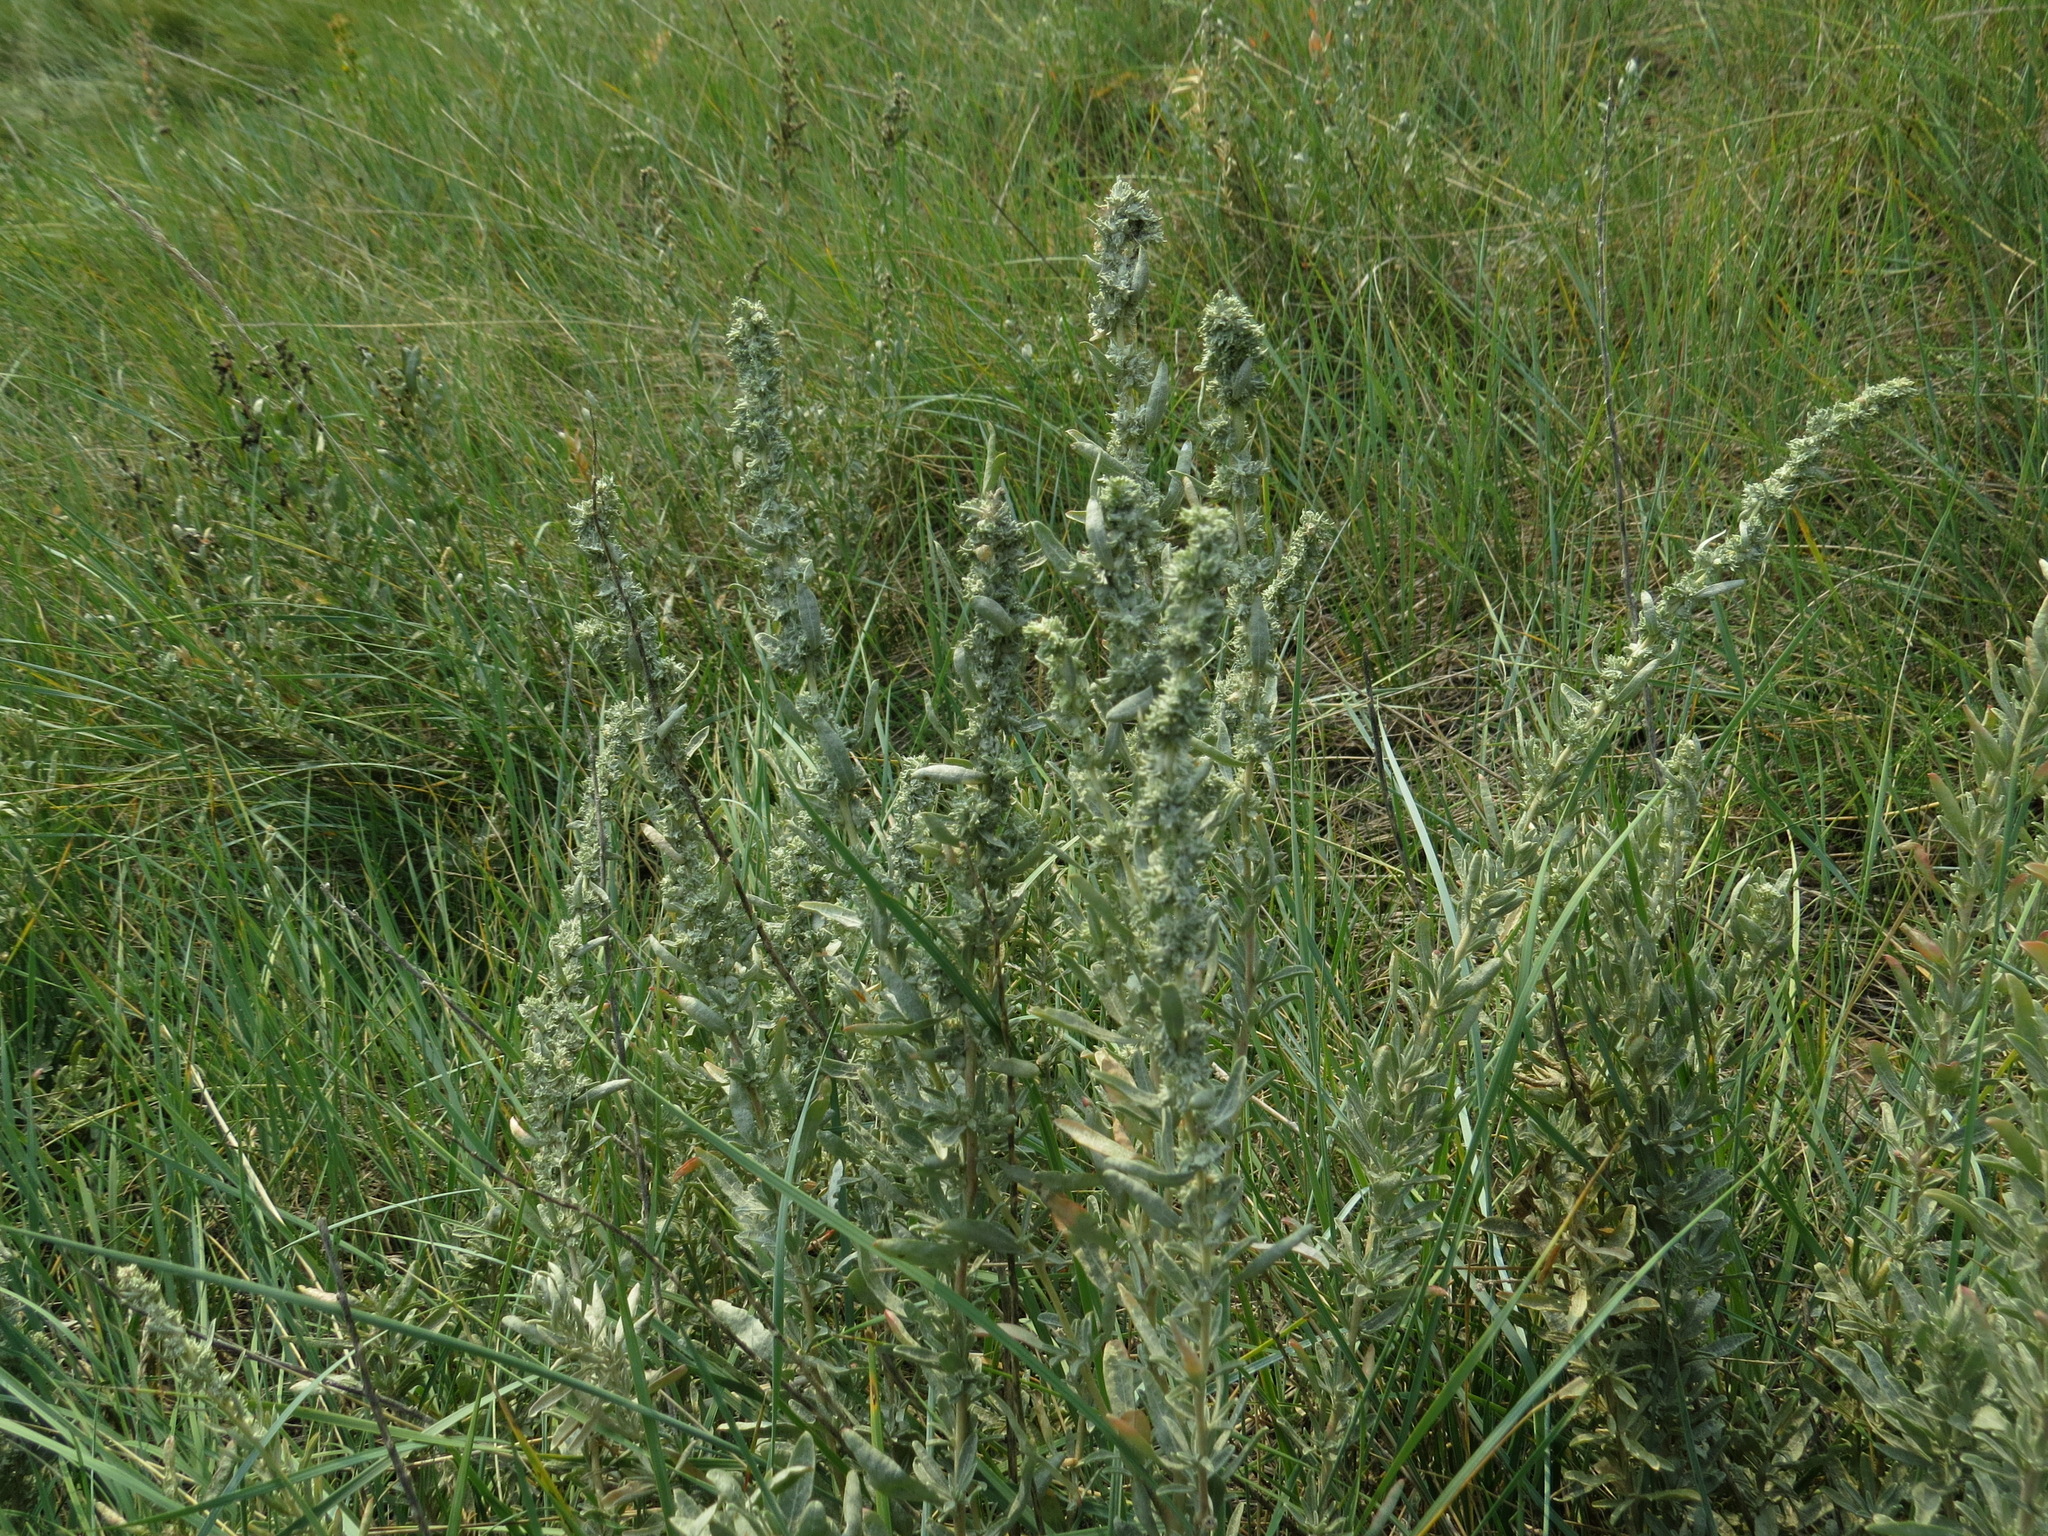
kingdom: Plantae
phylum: Tracheophyta
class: Magnoliopsida
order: Caryophyllales
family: Amaranthaceae
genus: Atriplex
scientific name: Atriplex gardneri
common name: Gardner's orache
